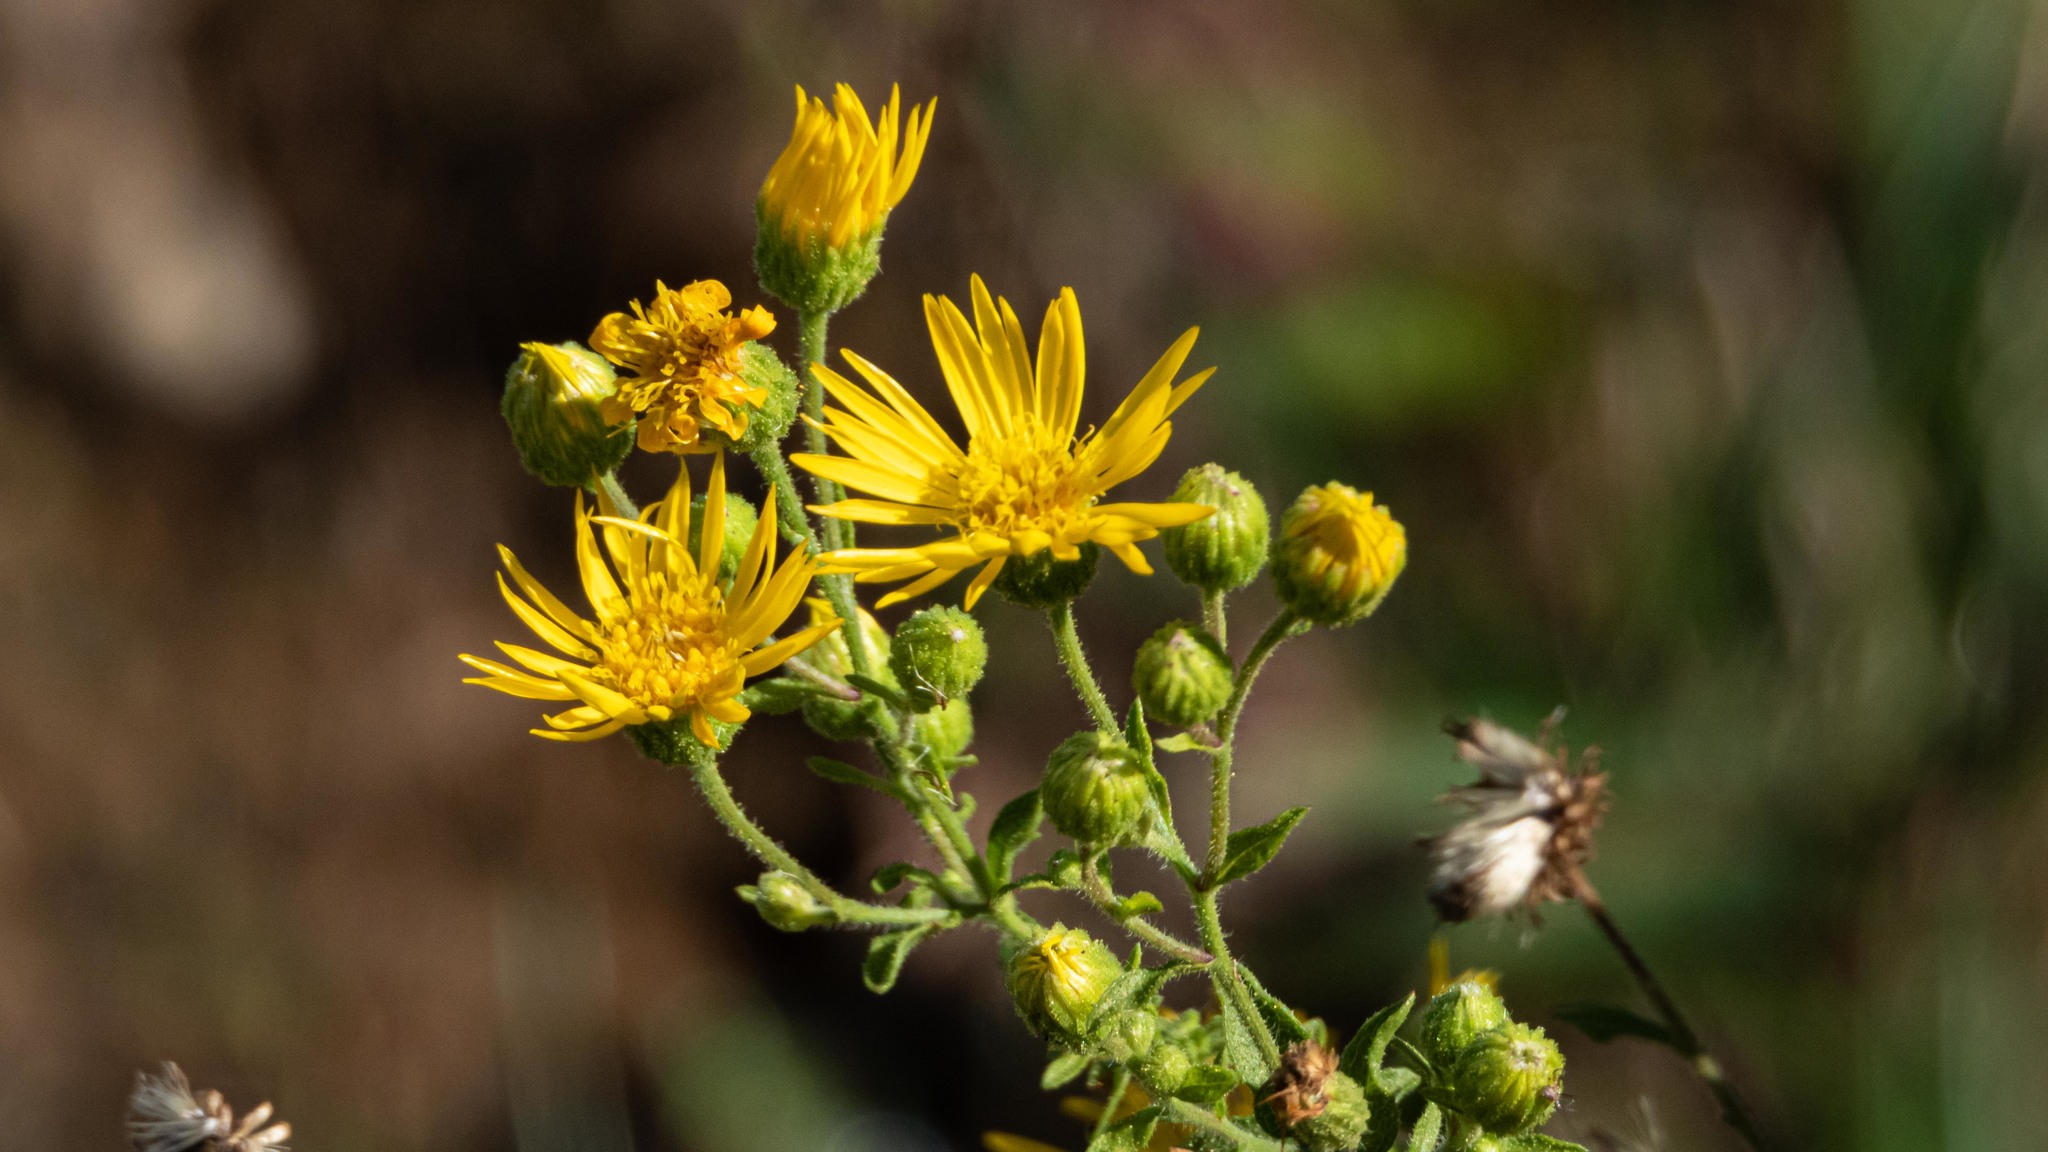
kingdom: Plantae
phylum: Tracheophyta
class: Magnoliopsida
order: Asterales
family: Asteraceae
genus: Chrysopsis
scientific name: Chrysopsis mariana
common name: Maryland golden-aster
